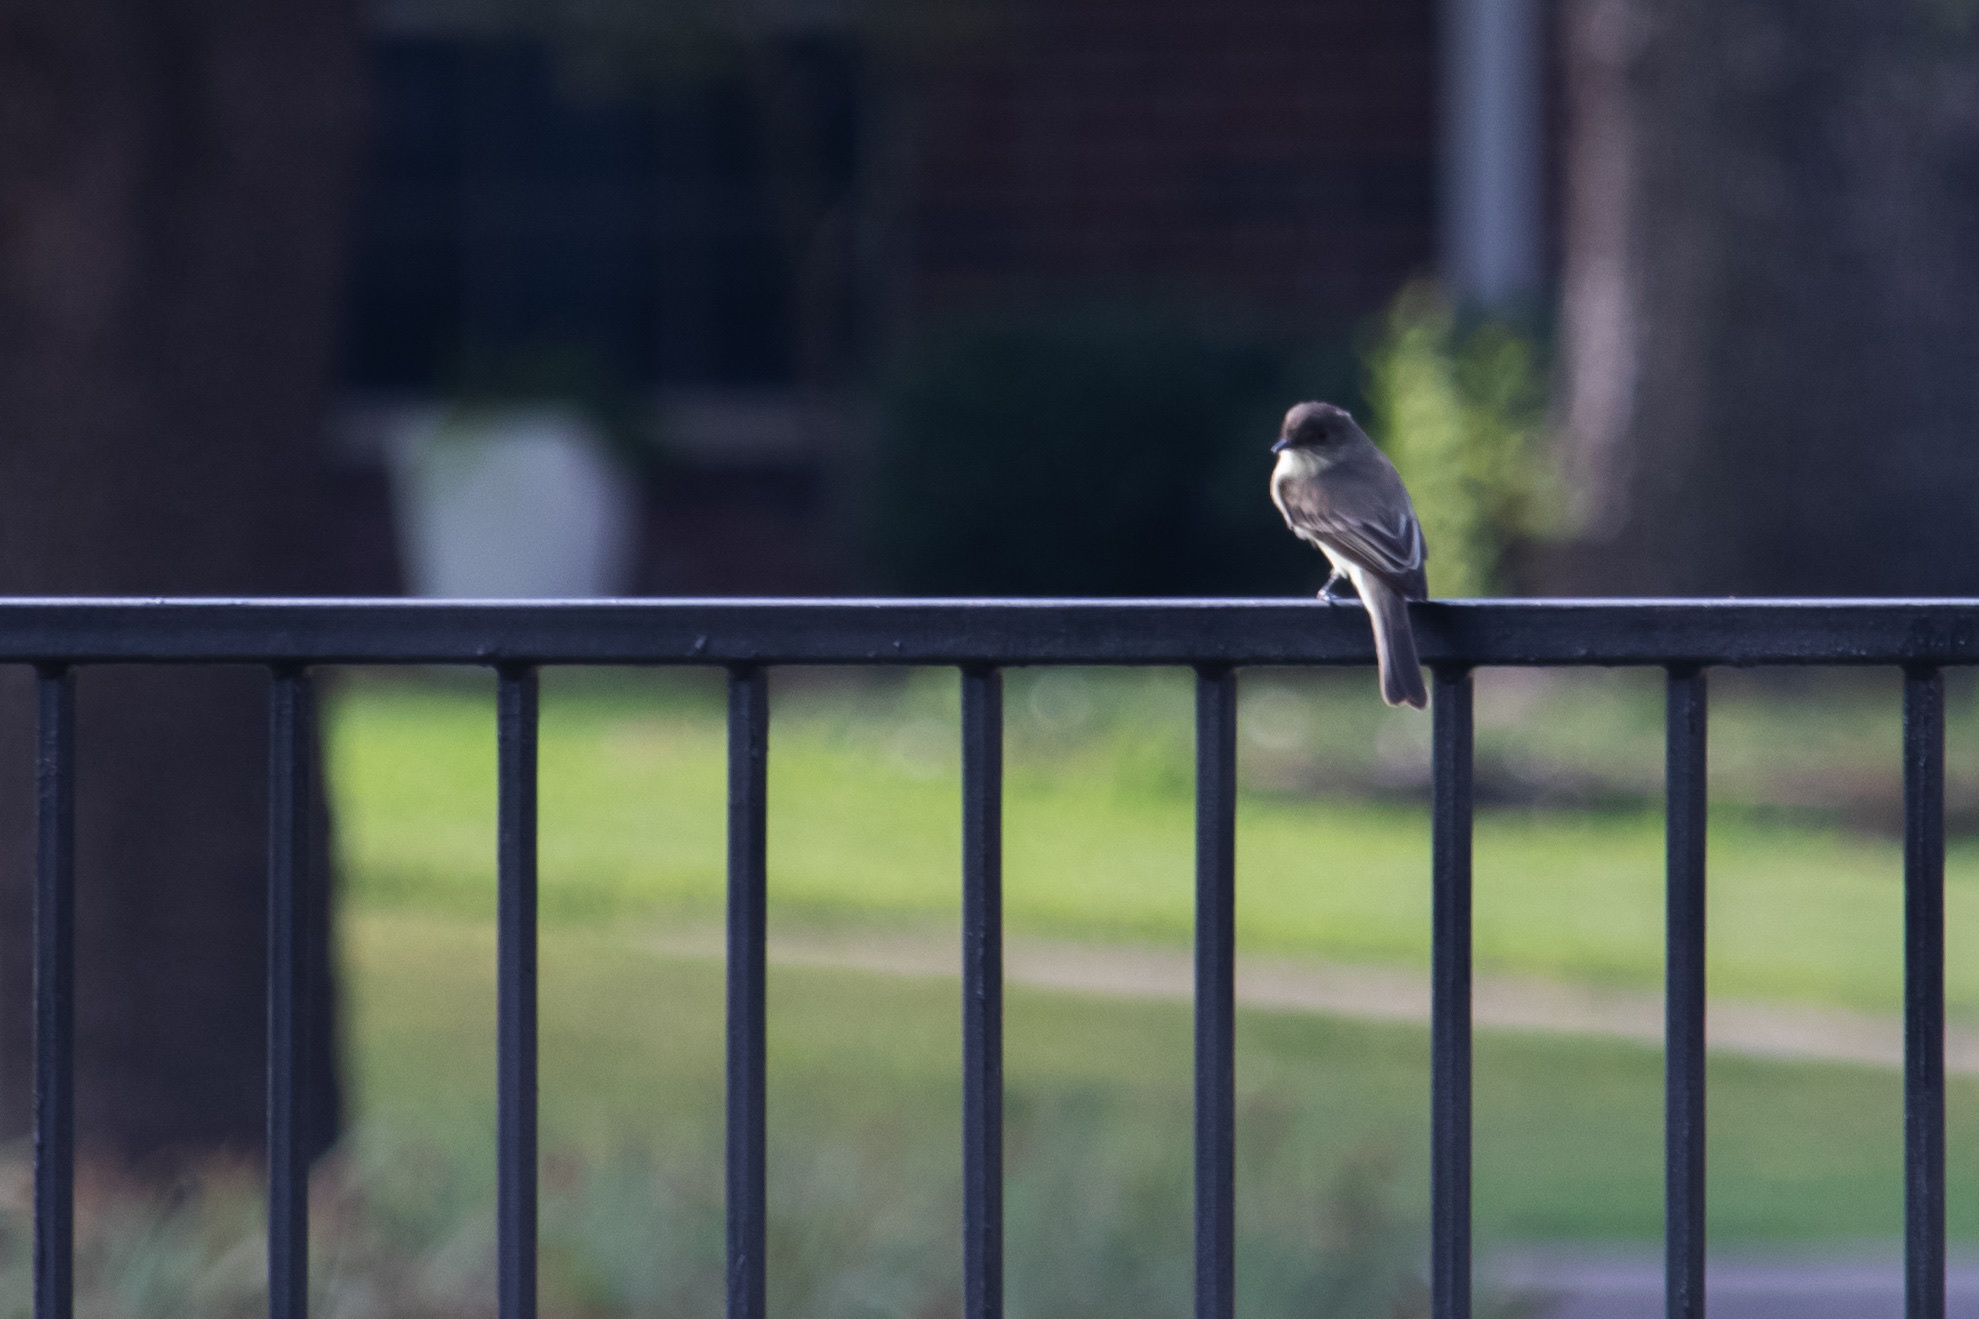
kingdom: Animalia
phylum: Chordata
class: Aves
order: Passeriformes
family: Tyrannidae
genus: Sayornis
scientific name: Sayornis phoebe
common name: Eastern phoebe
